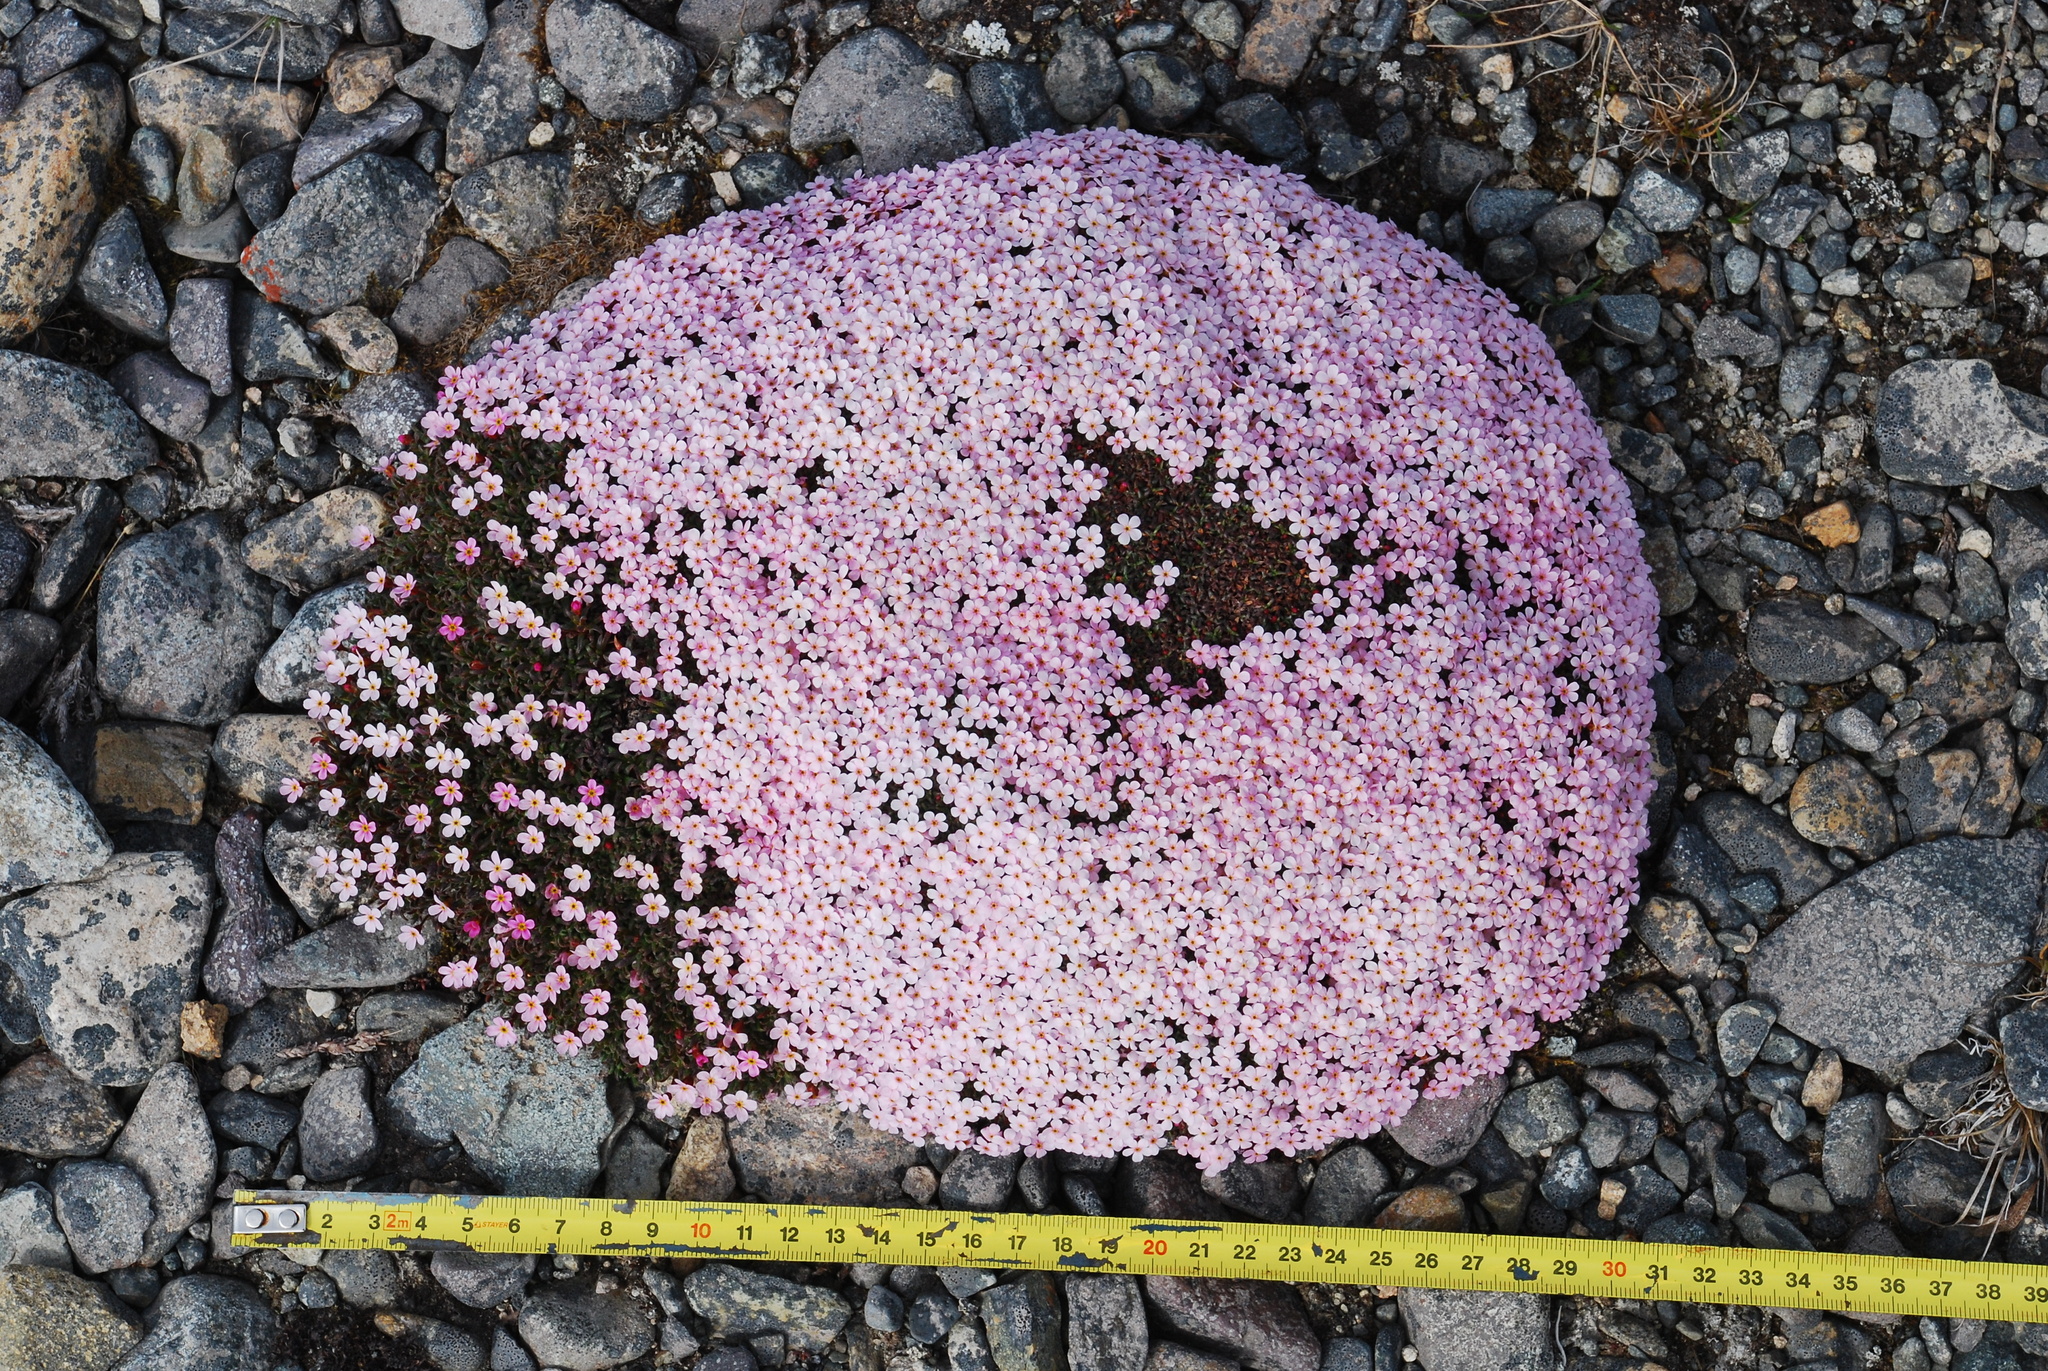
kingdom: Plantae
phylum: Tracheophyta
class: Magnoliopsida
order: Ericales
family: Primulaceae
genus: Androsace
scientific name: Androsace ochotensis
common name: Alaska dwarf-primrose
